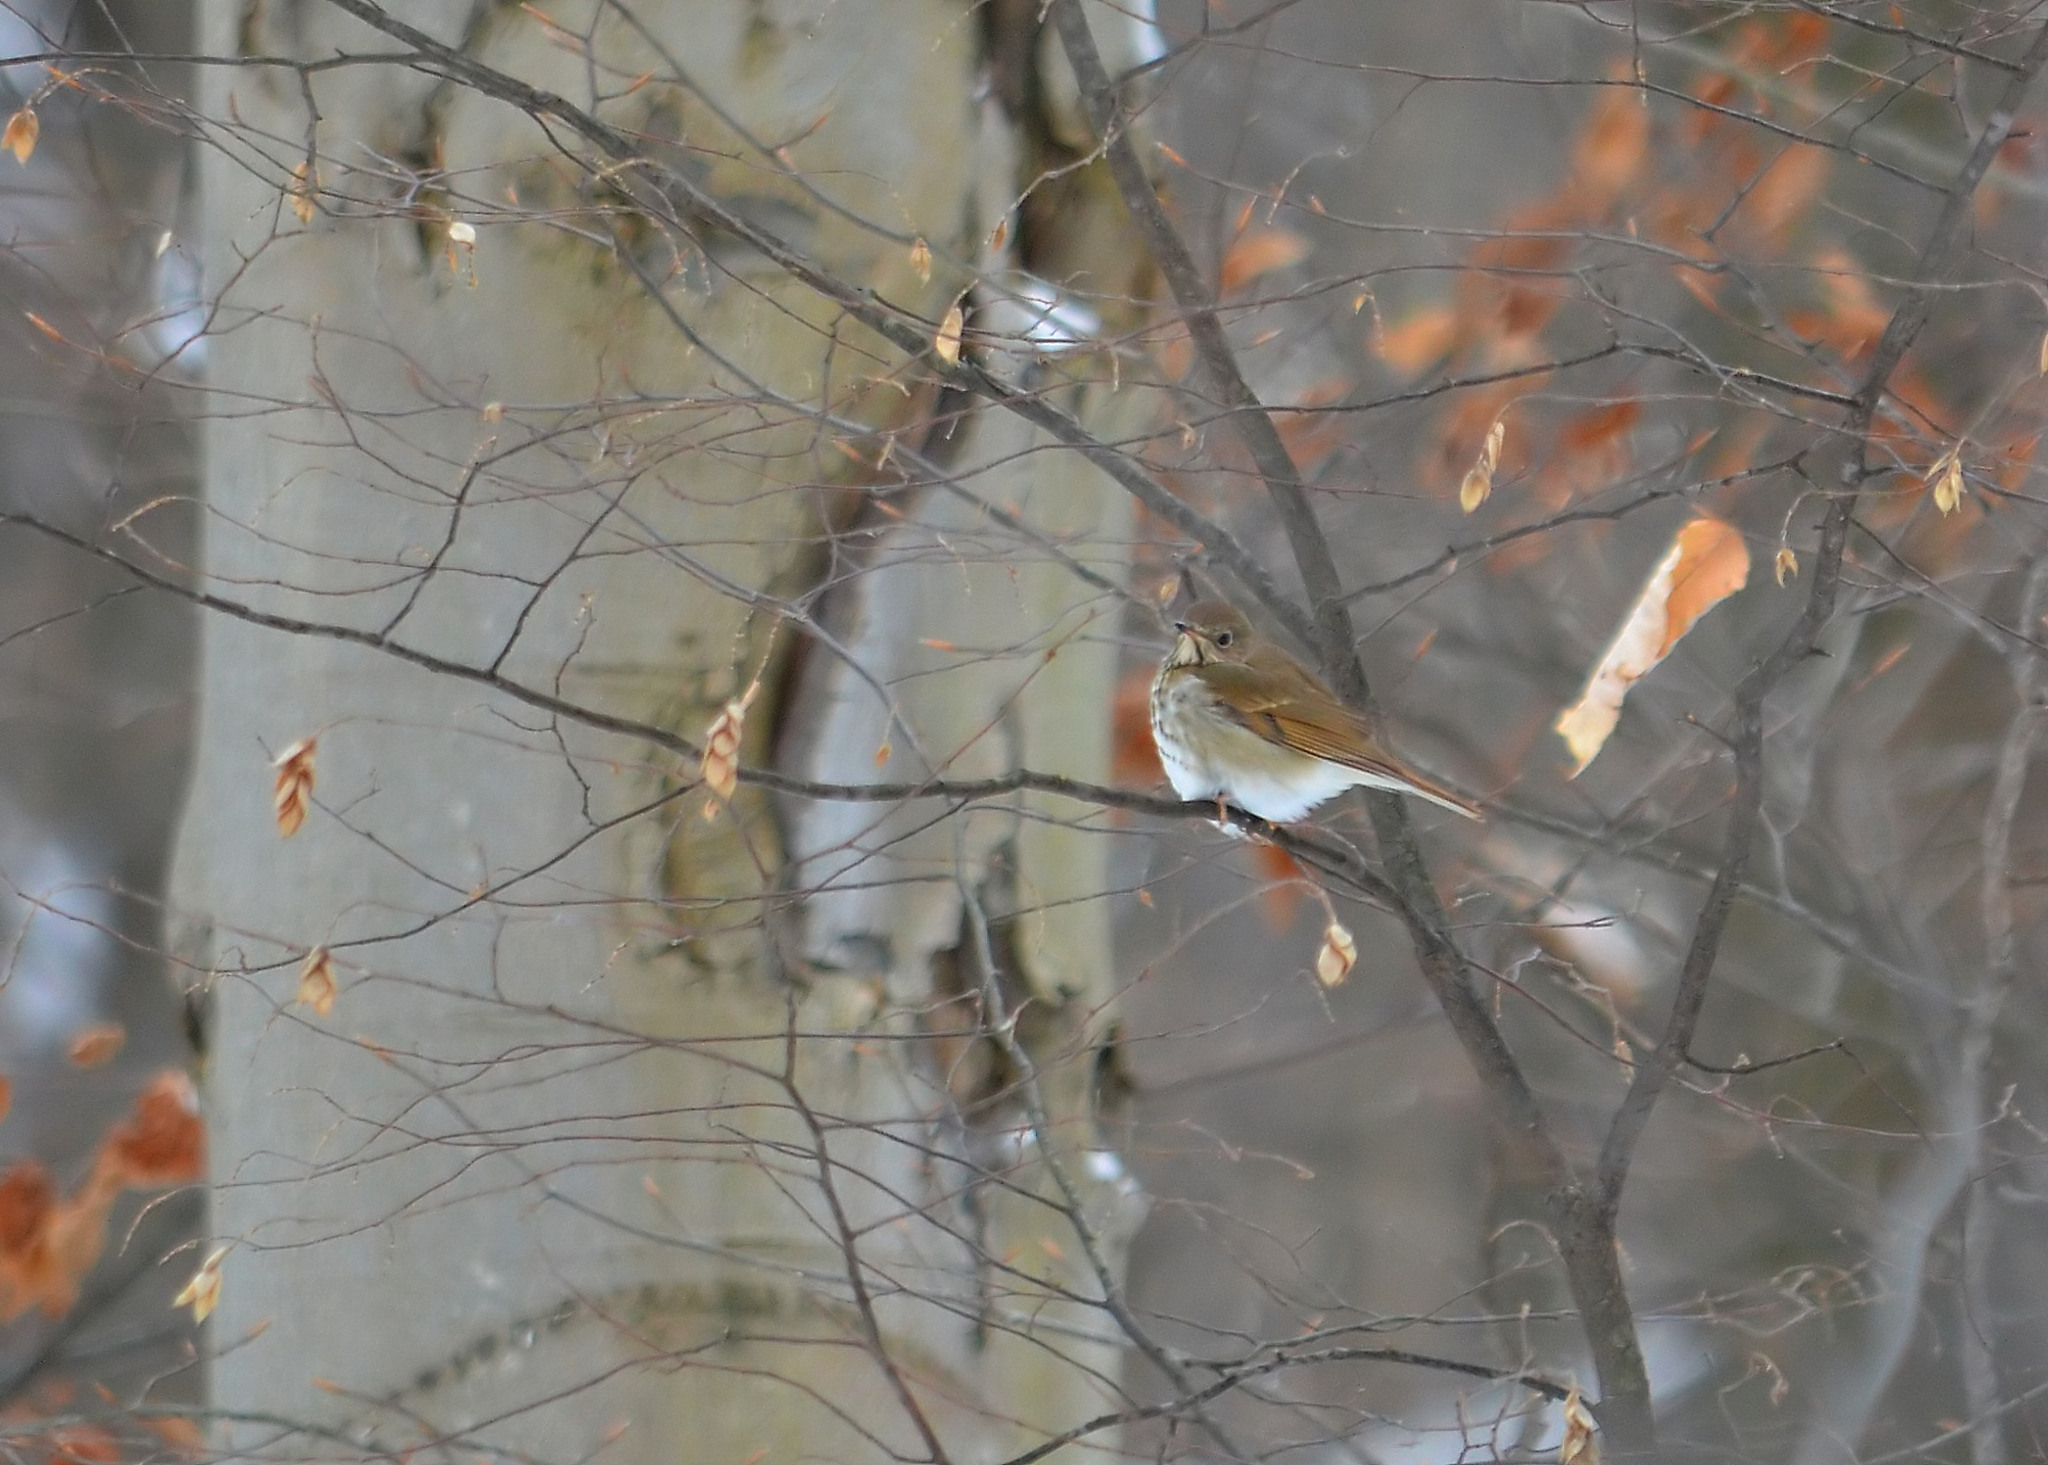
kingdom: Animalia
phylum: Chordata
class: Aves
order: Passeriformes
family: Turdidae
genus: Catharus
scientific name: Catharus guttatus
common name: Hermit thrush
